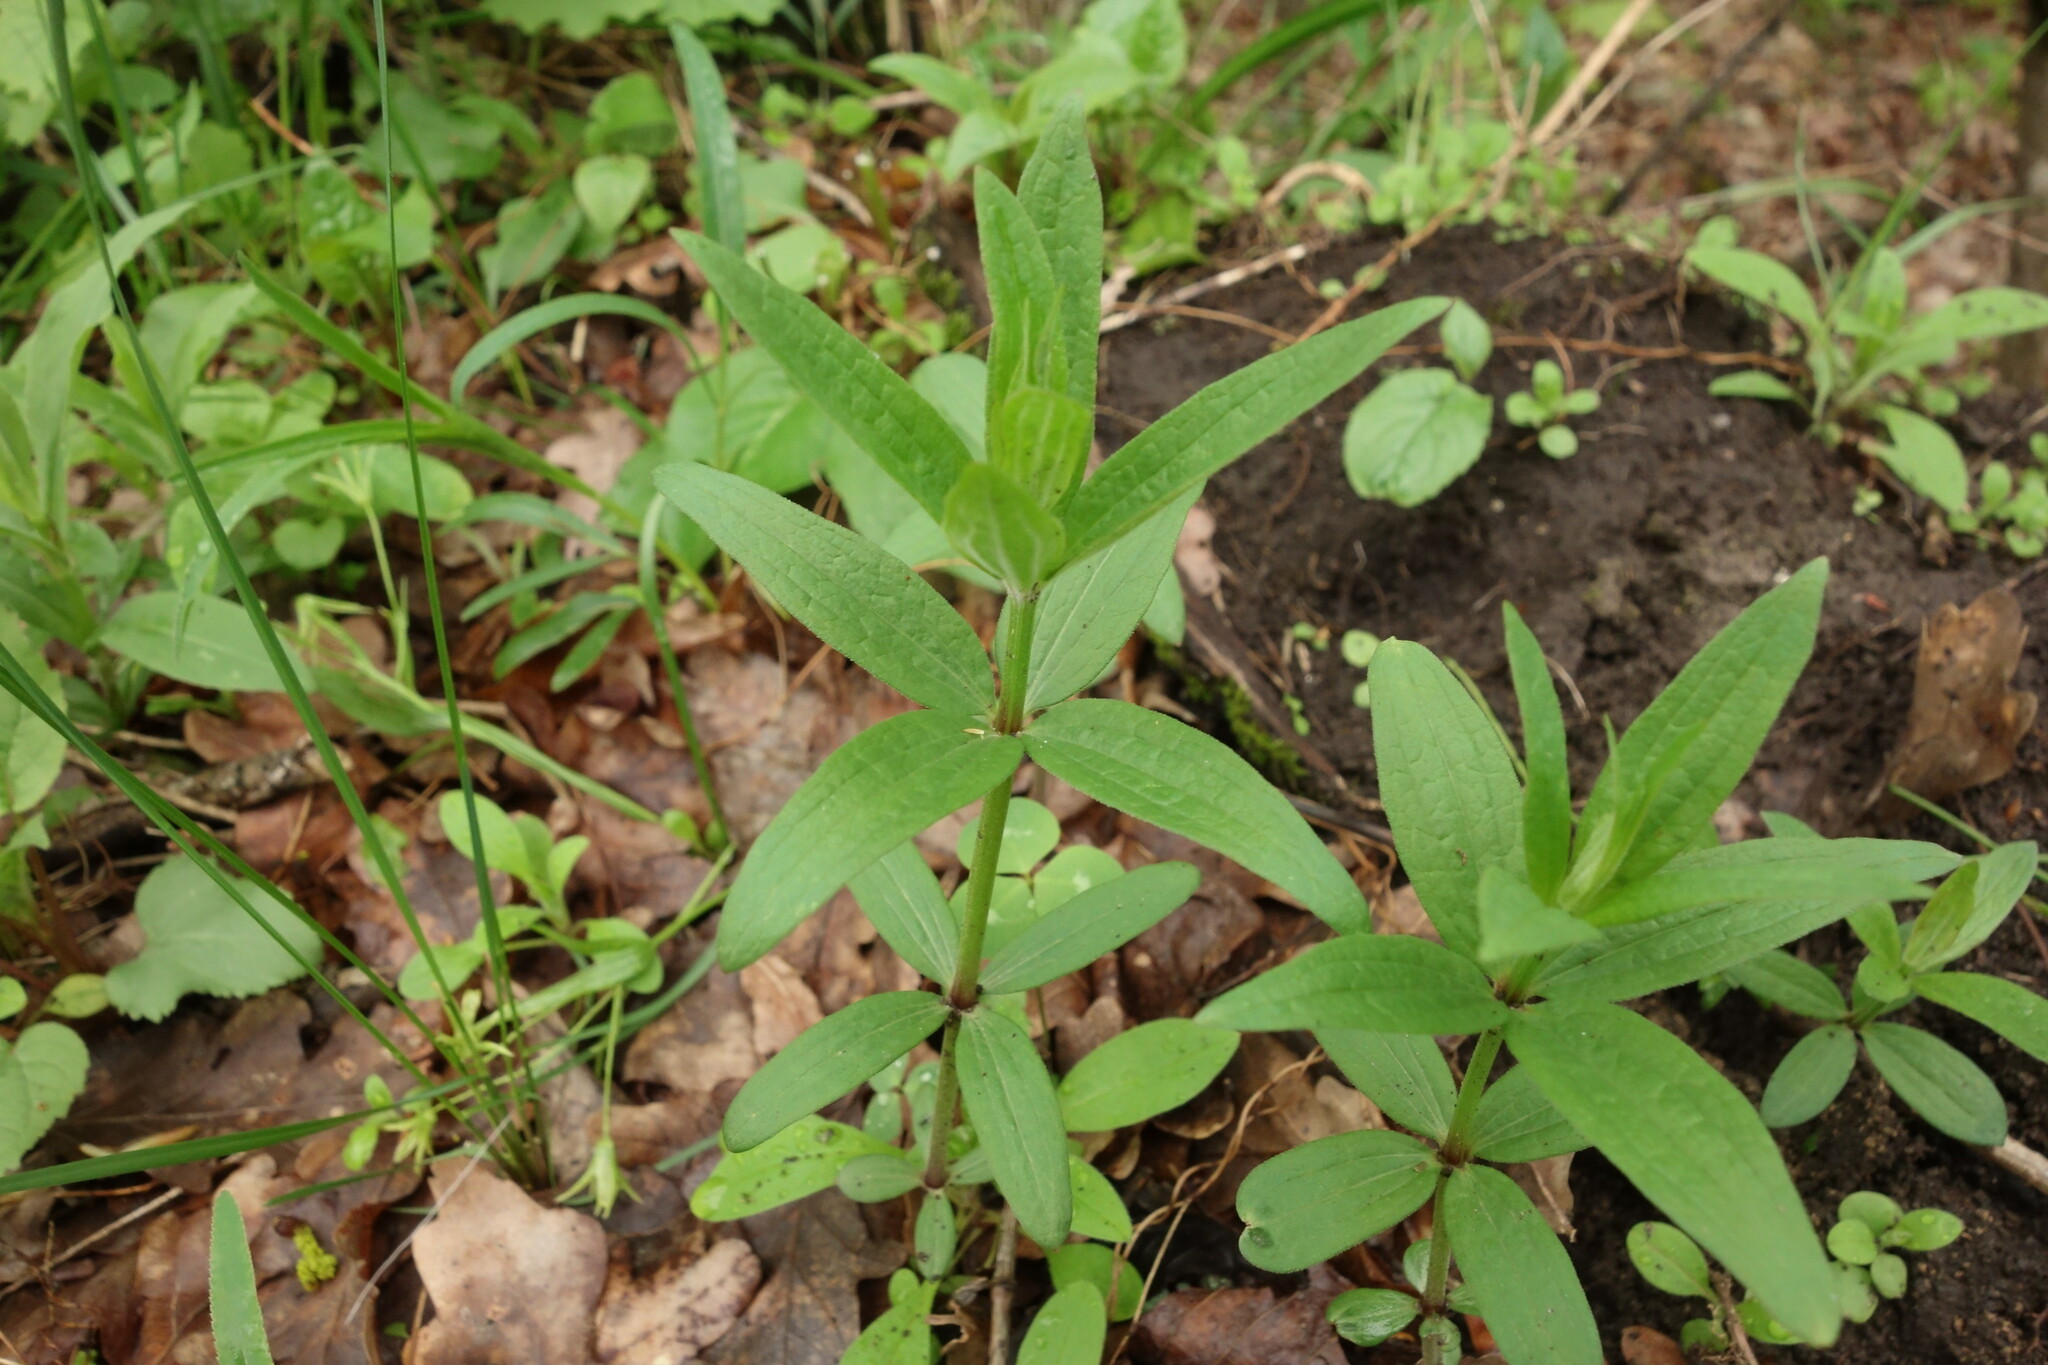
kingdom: Plantae
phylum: Tracheophyta
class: Magnoliopsida
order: Gentianales
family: Rubiaceae
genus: Galium
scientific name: Galium rubioides
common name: European bedstraw
